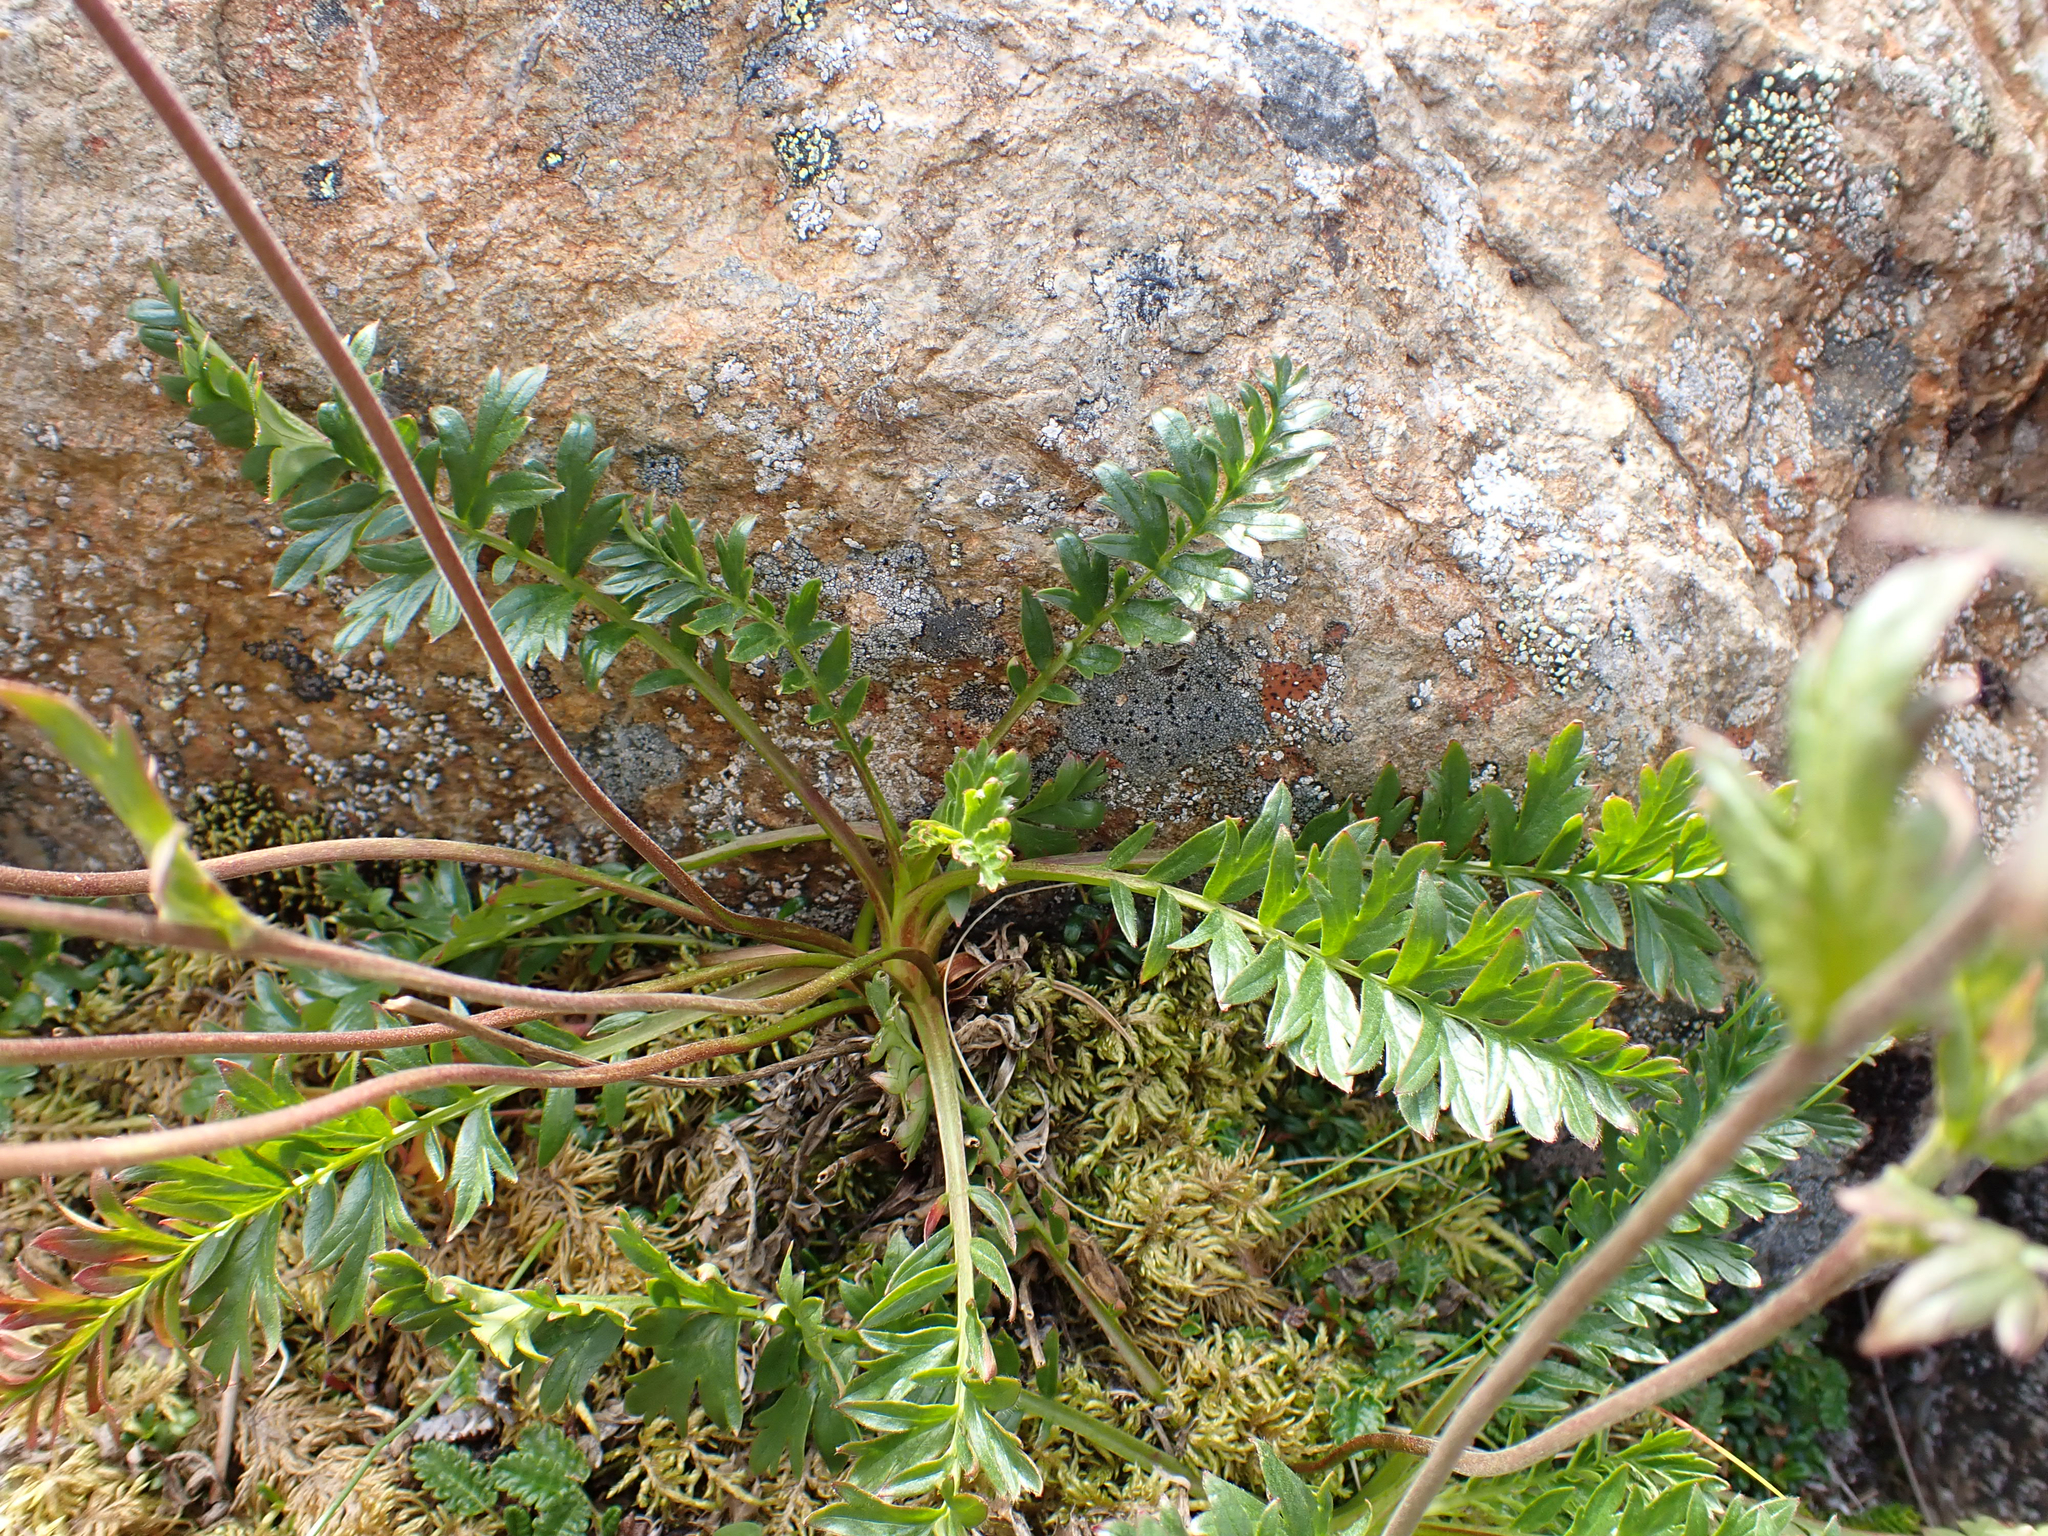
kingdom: Plantae
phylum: Tracheophyta
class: Magnoliopsida
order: Rosales
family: Rosaceae
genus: Geum
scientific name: Geum rossii
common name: Alpine avens
